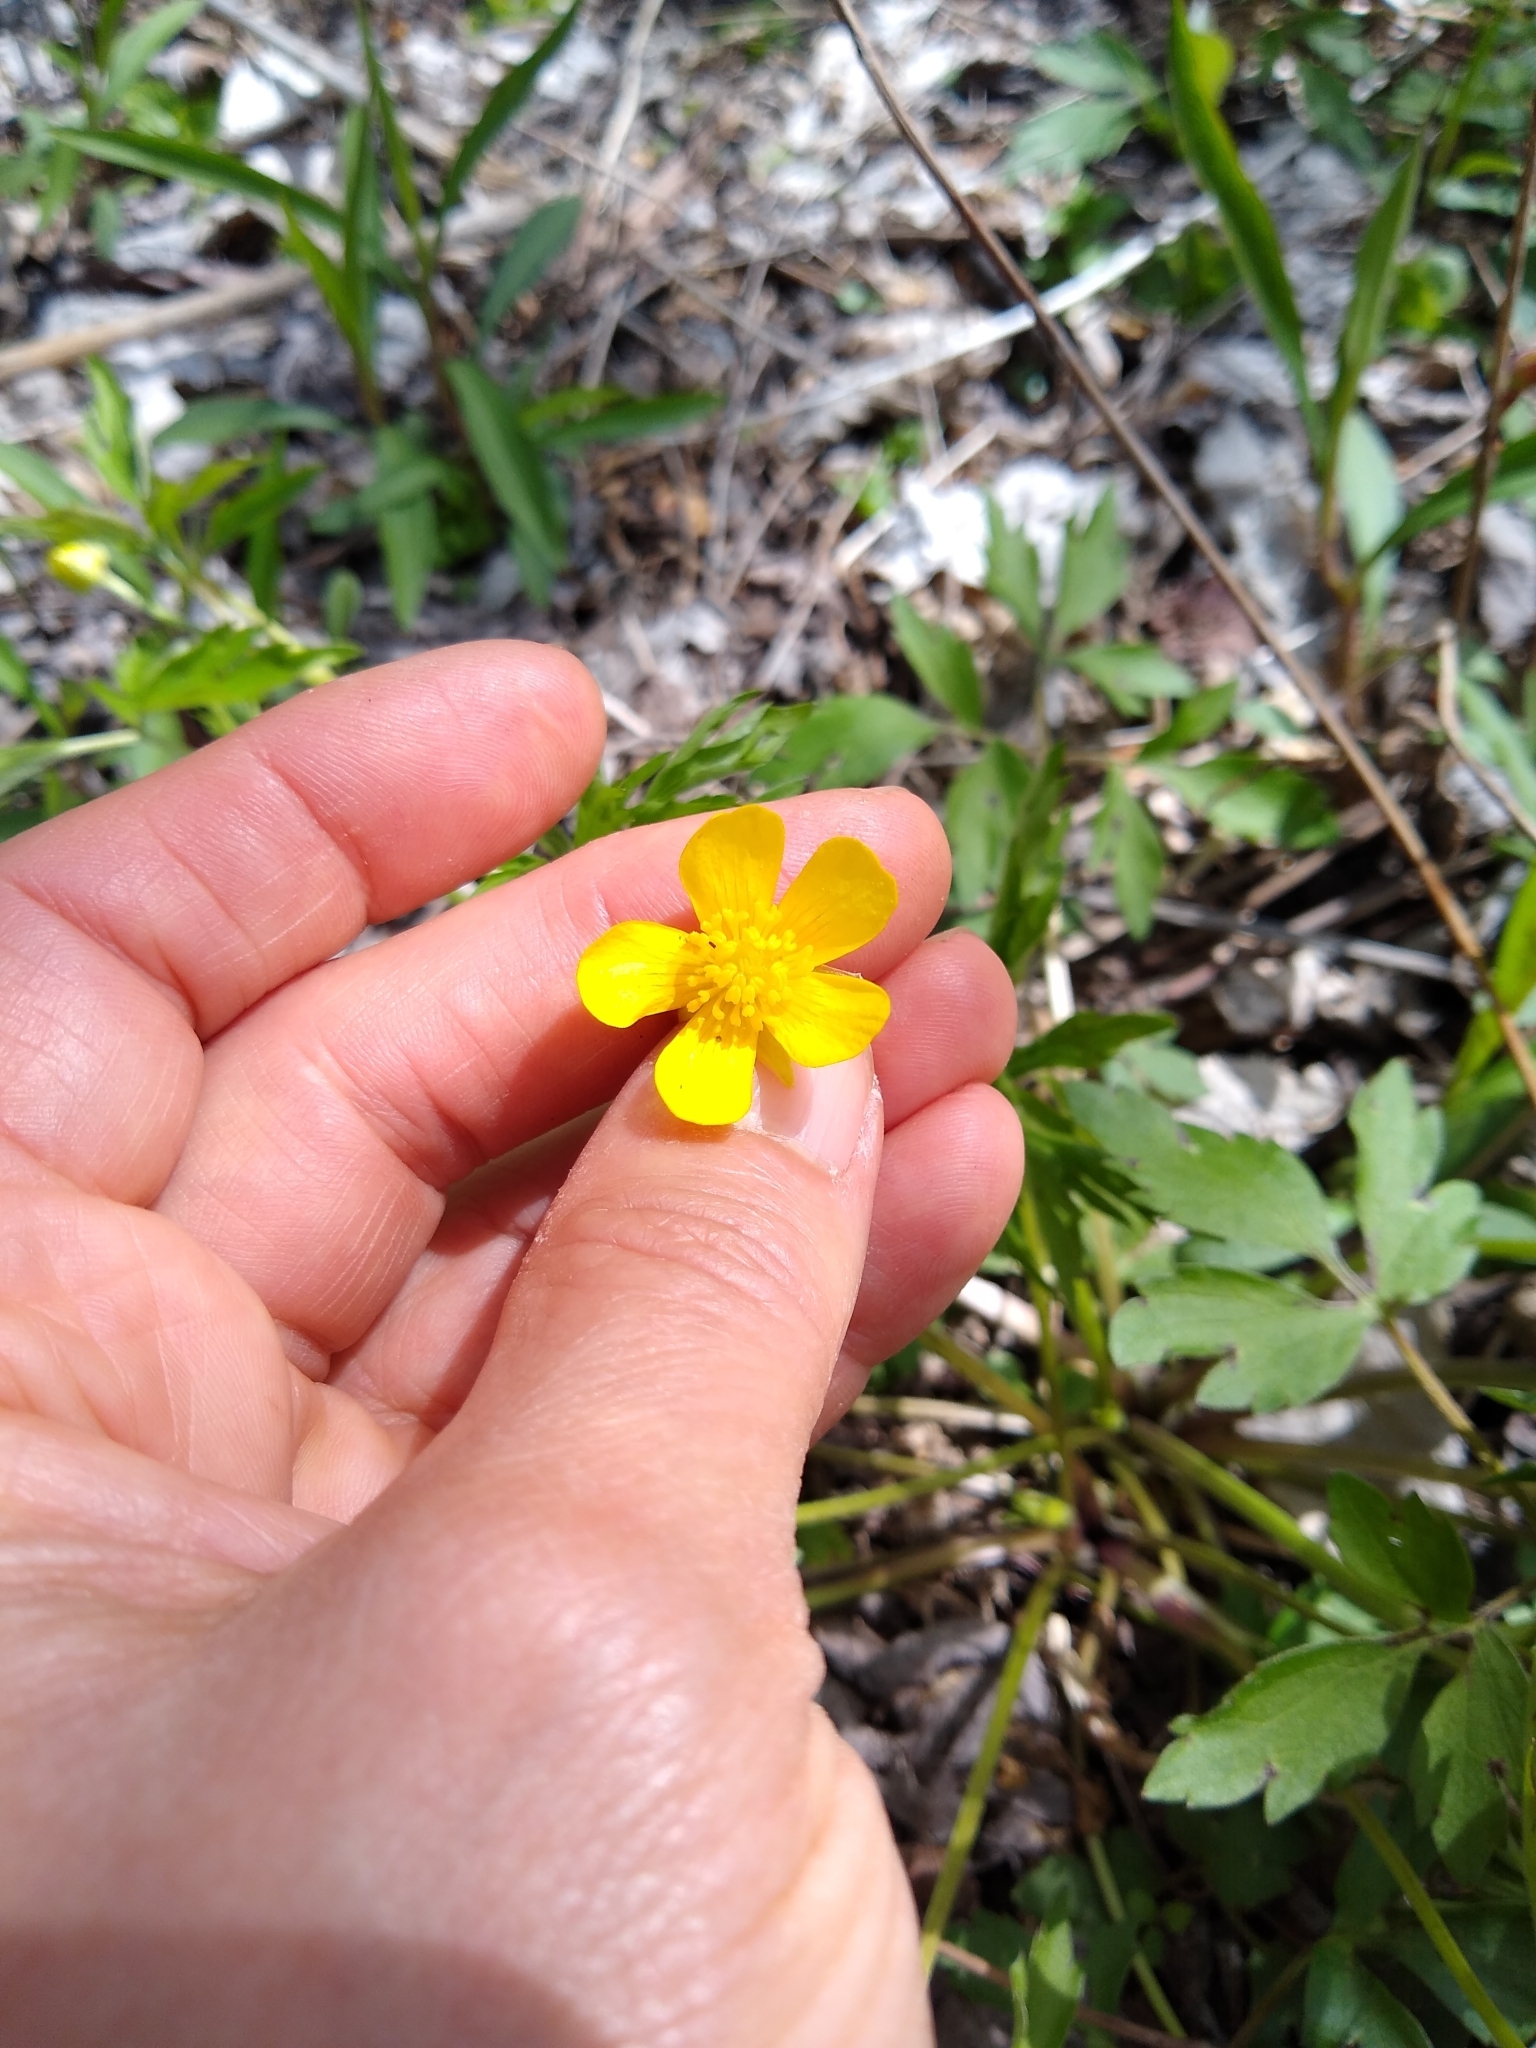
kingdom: Plantae
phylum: Tracheophyta
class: Magnoliopsida
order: Ranunculales
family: Ranunculaceae
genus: Ranunculus
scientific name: Ranunculus hispidus
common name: Bristly buttercup
